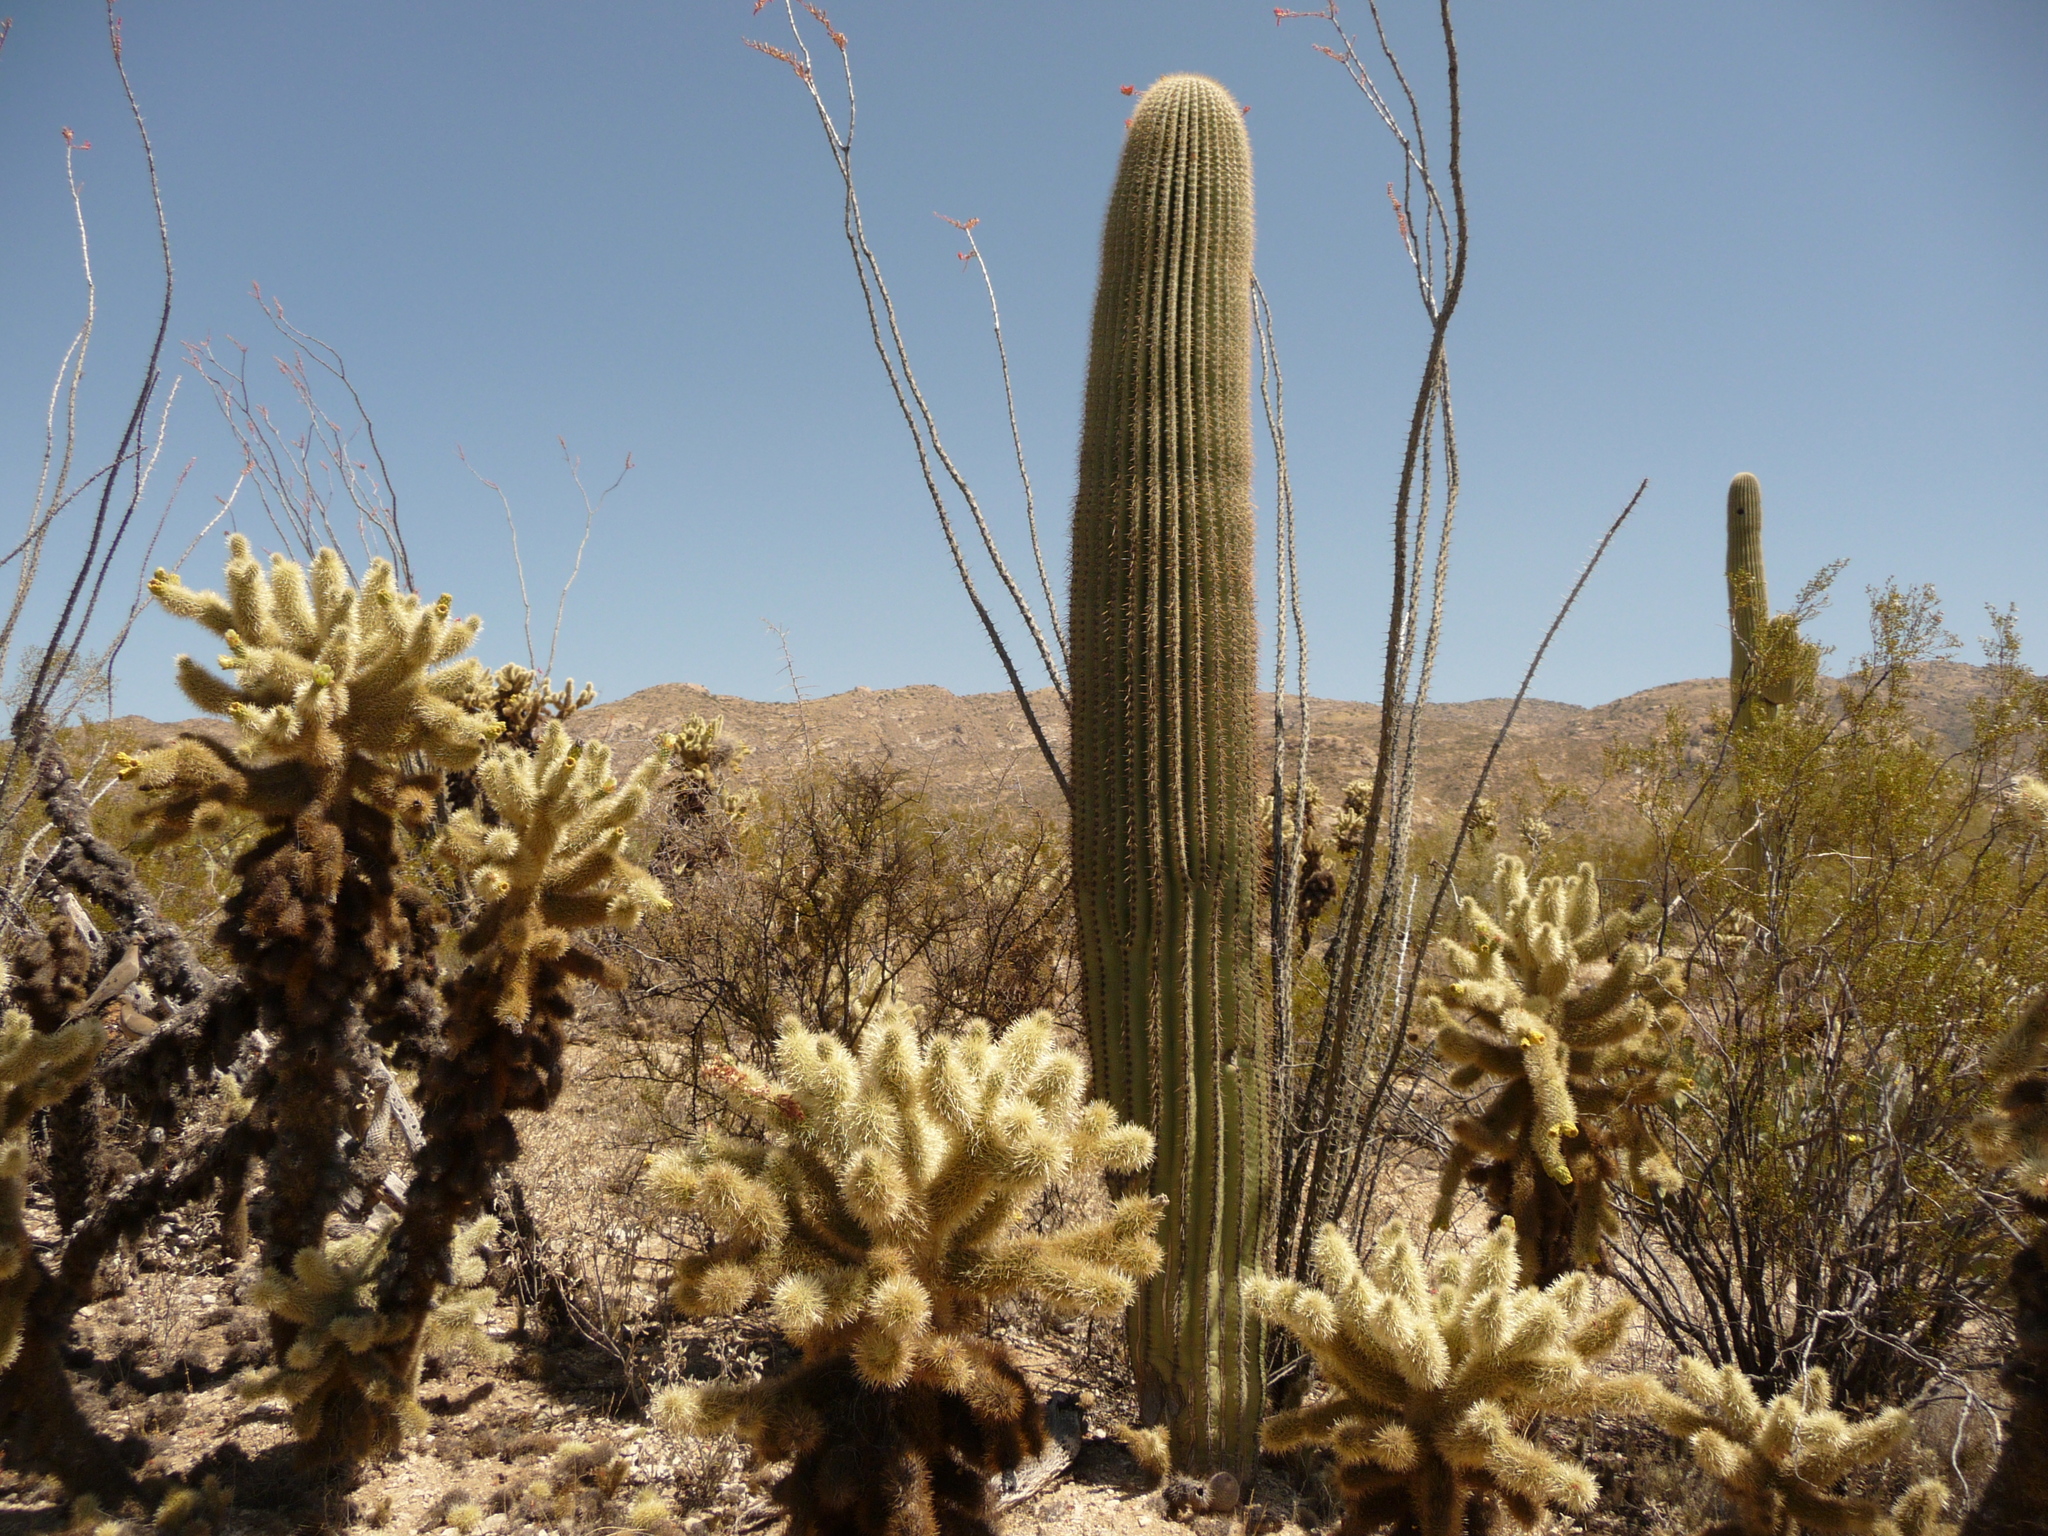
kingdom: Plantae
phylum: Tracheophyta
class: Magnoliopsida
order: Caryophyllales
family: Cactaceae
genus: Carnegiea
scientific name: Carnegiea gigantea
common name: Saguaro
